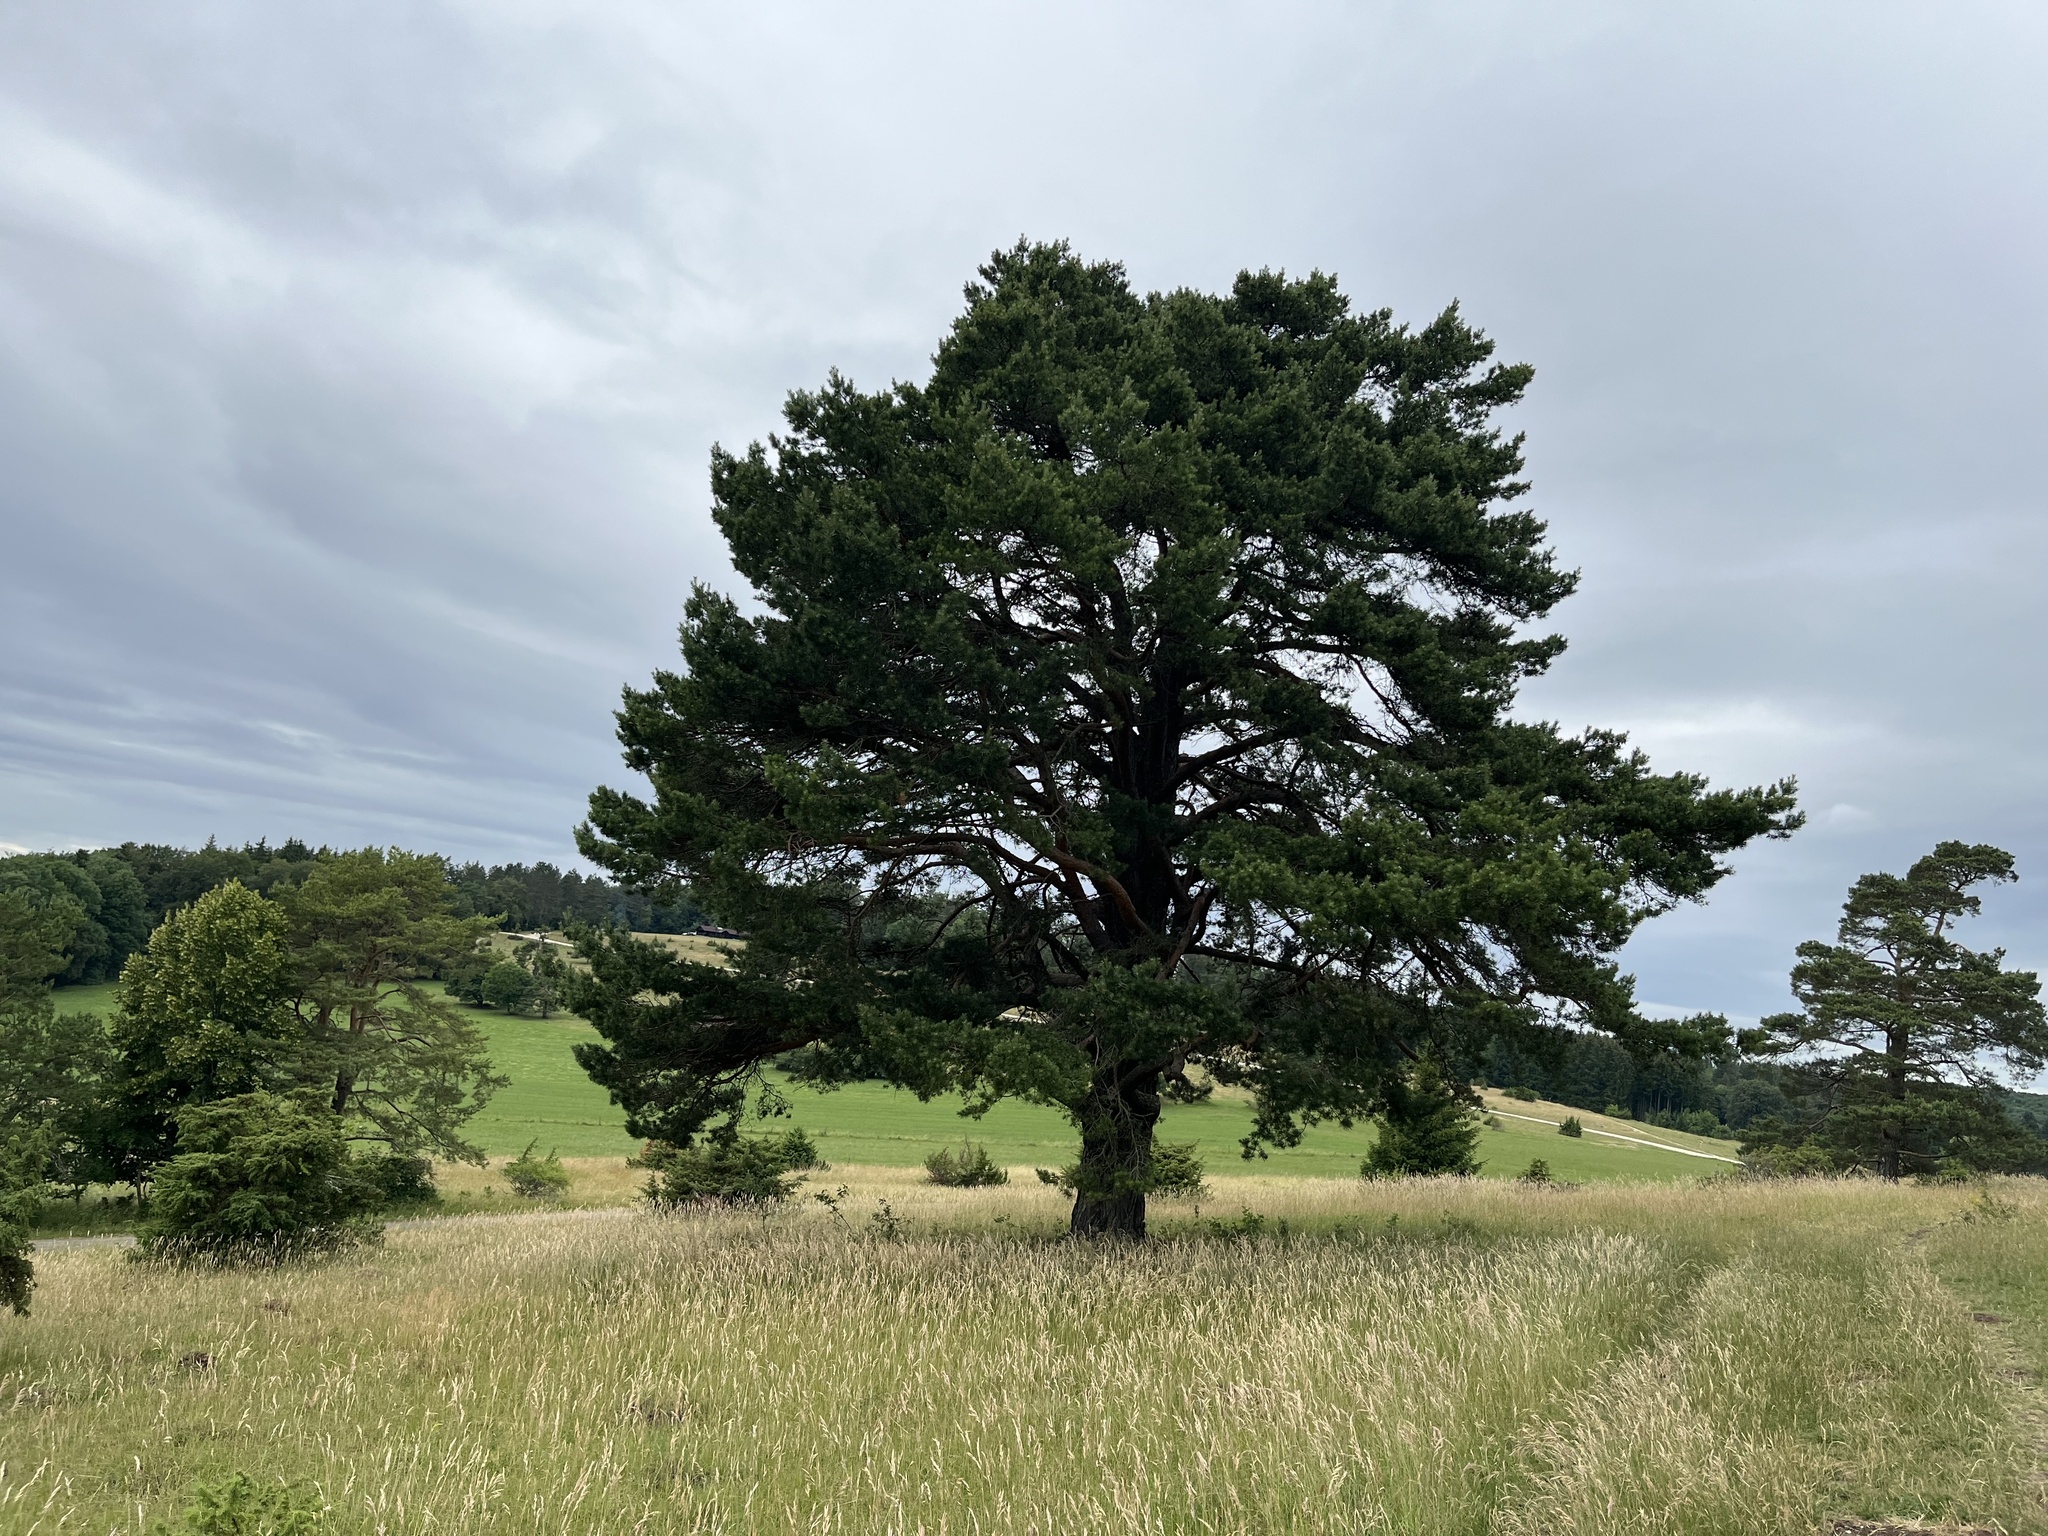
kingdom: Plantae
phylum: Tracheophyta
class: Pinopsida
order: Pinales
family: Pinaceae
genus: Pinus
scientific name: Pinus sylvestris
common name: Scots pine
